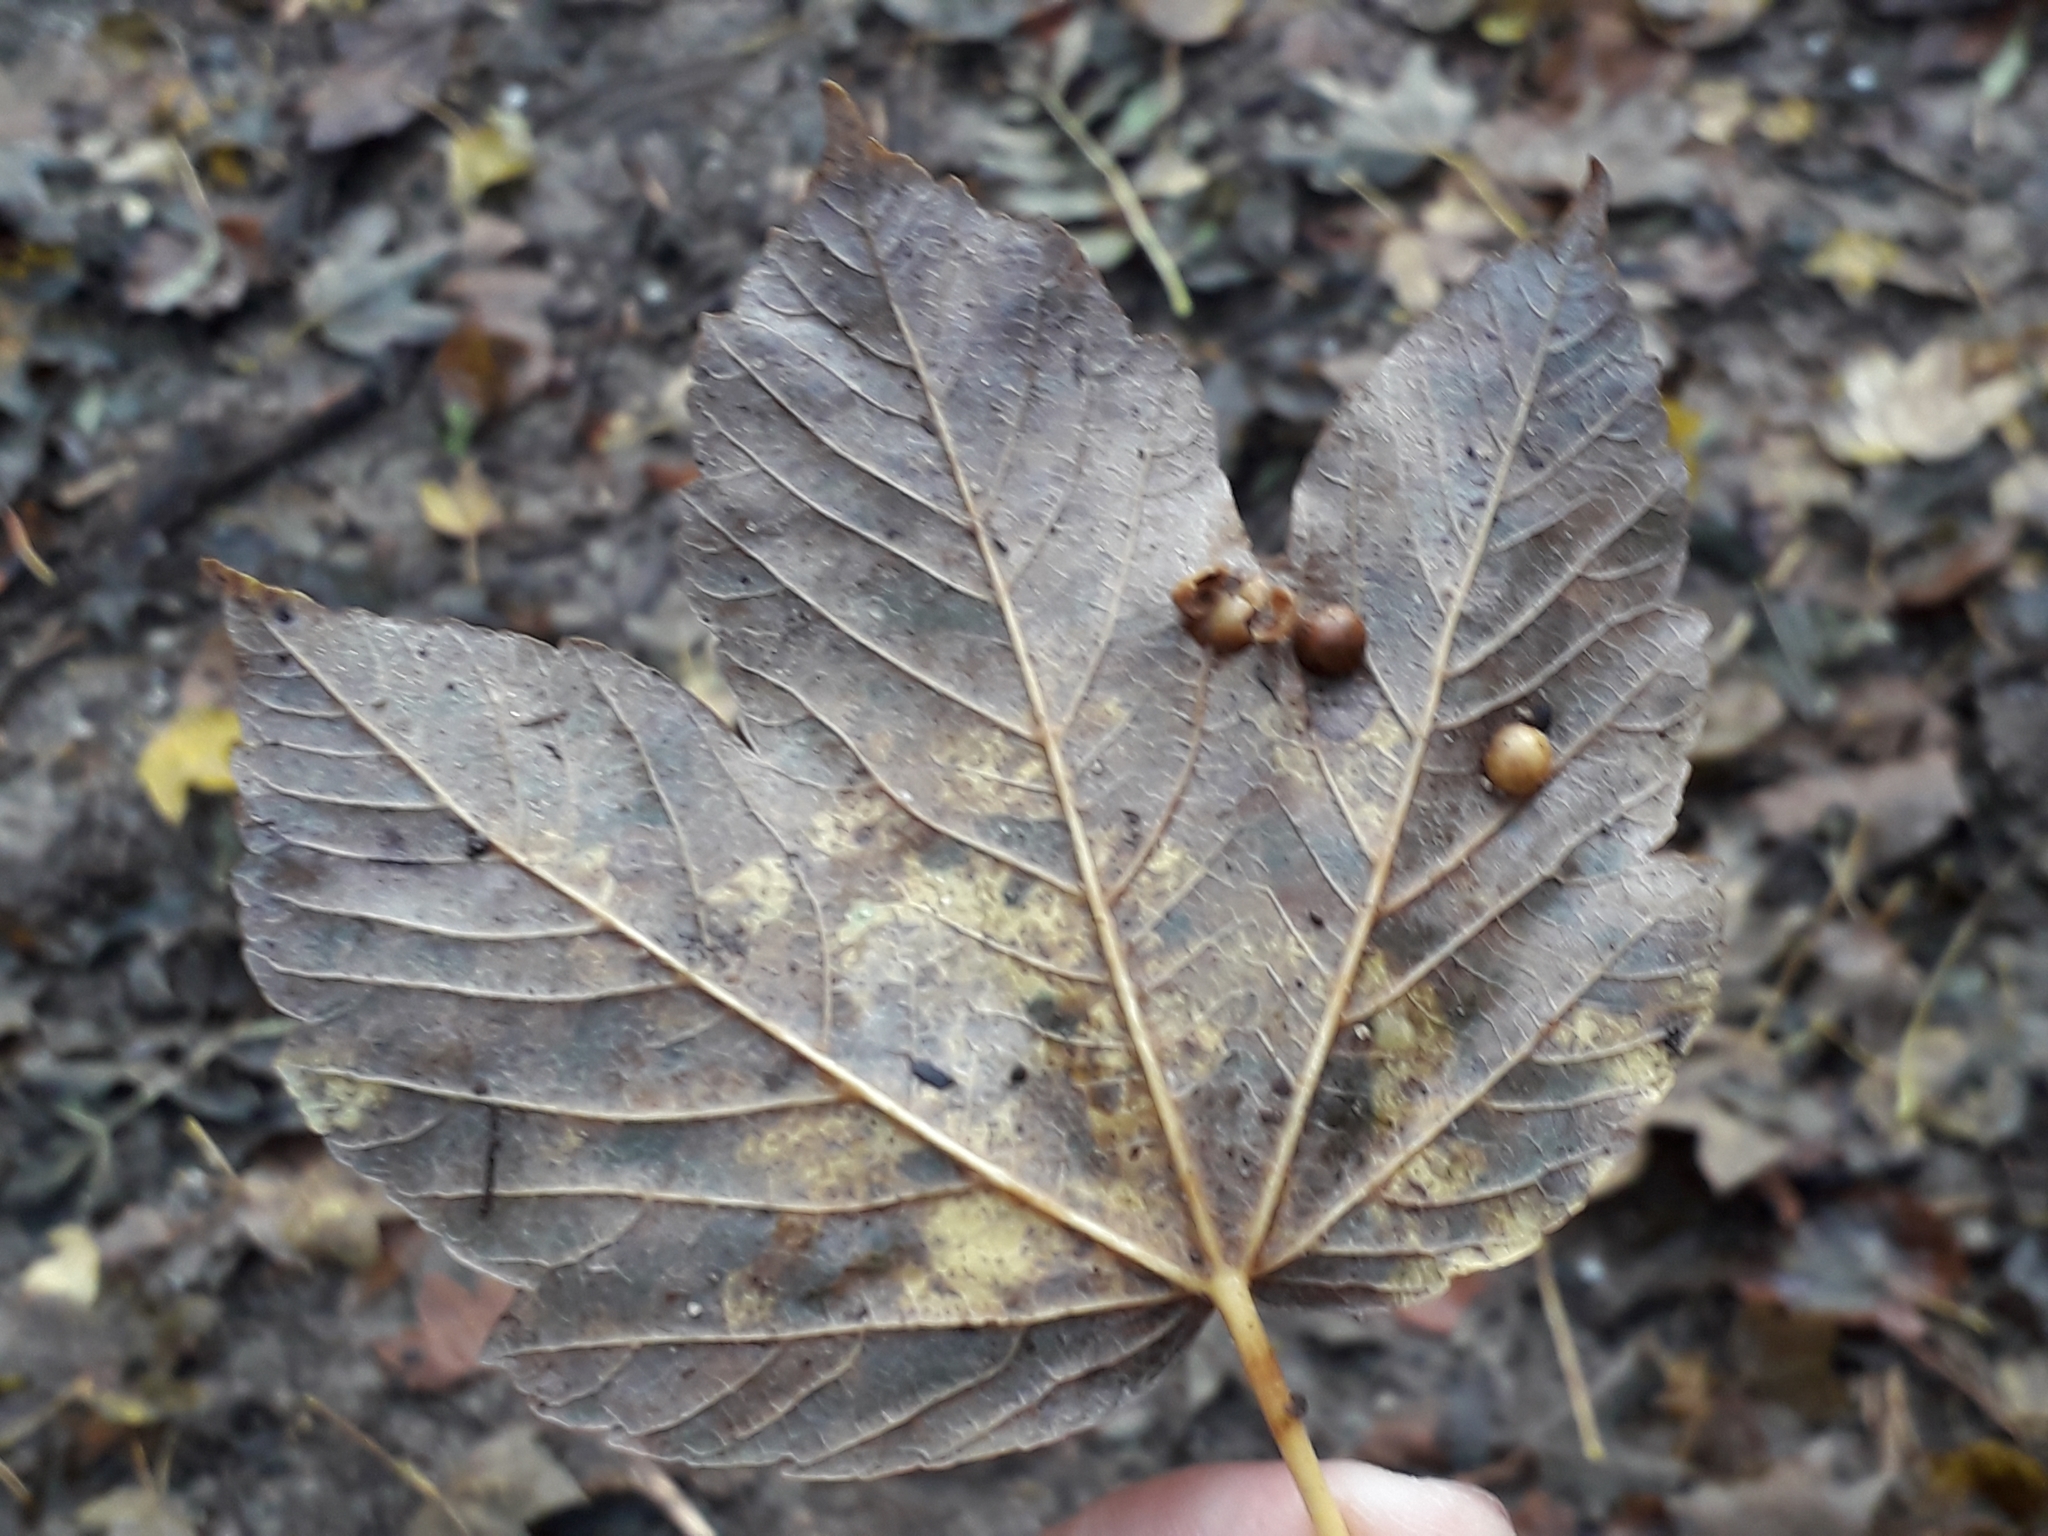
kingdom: Animalia
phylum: Arthropoda
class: Insecta
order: Hymenoptera
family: Cynipidae
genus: Pediaspis
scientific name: Pediaspis aceris
